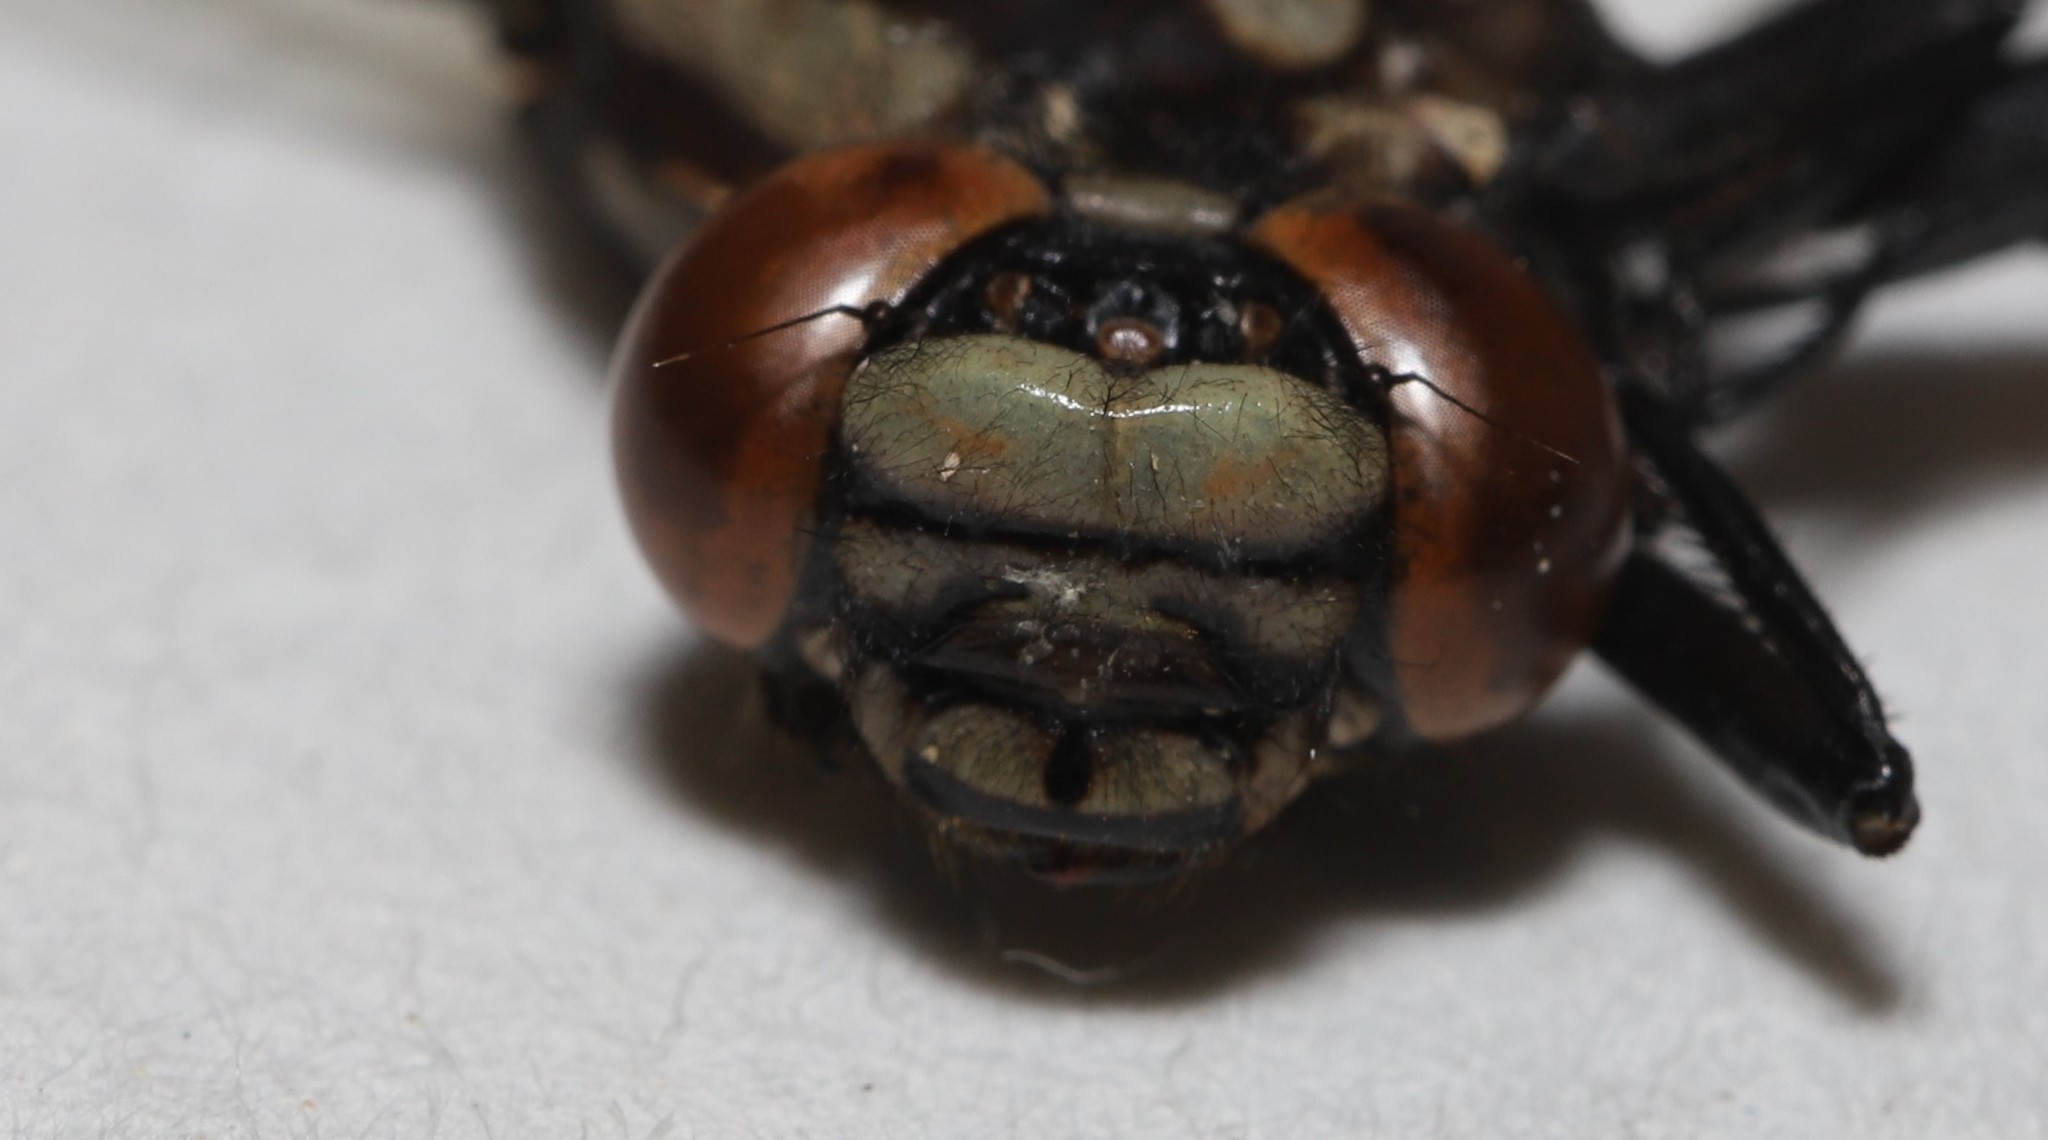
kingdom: Animalia
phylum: Arthropoda
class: Insecta
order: Odonata
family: Gomphidae
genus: Hylogomphus
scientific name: Hylogomphus adelphus
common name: Mustached clubtail
